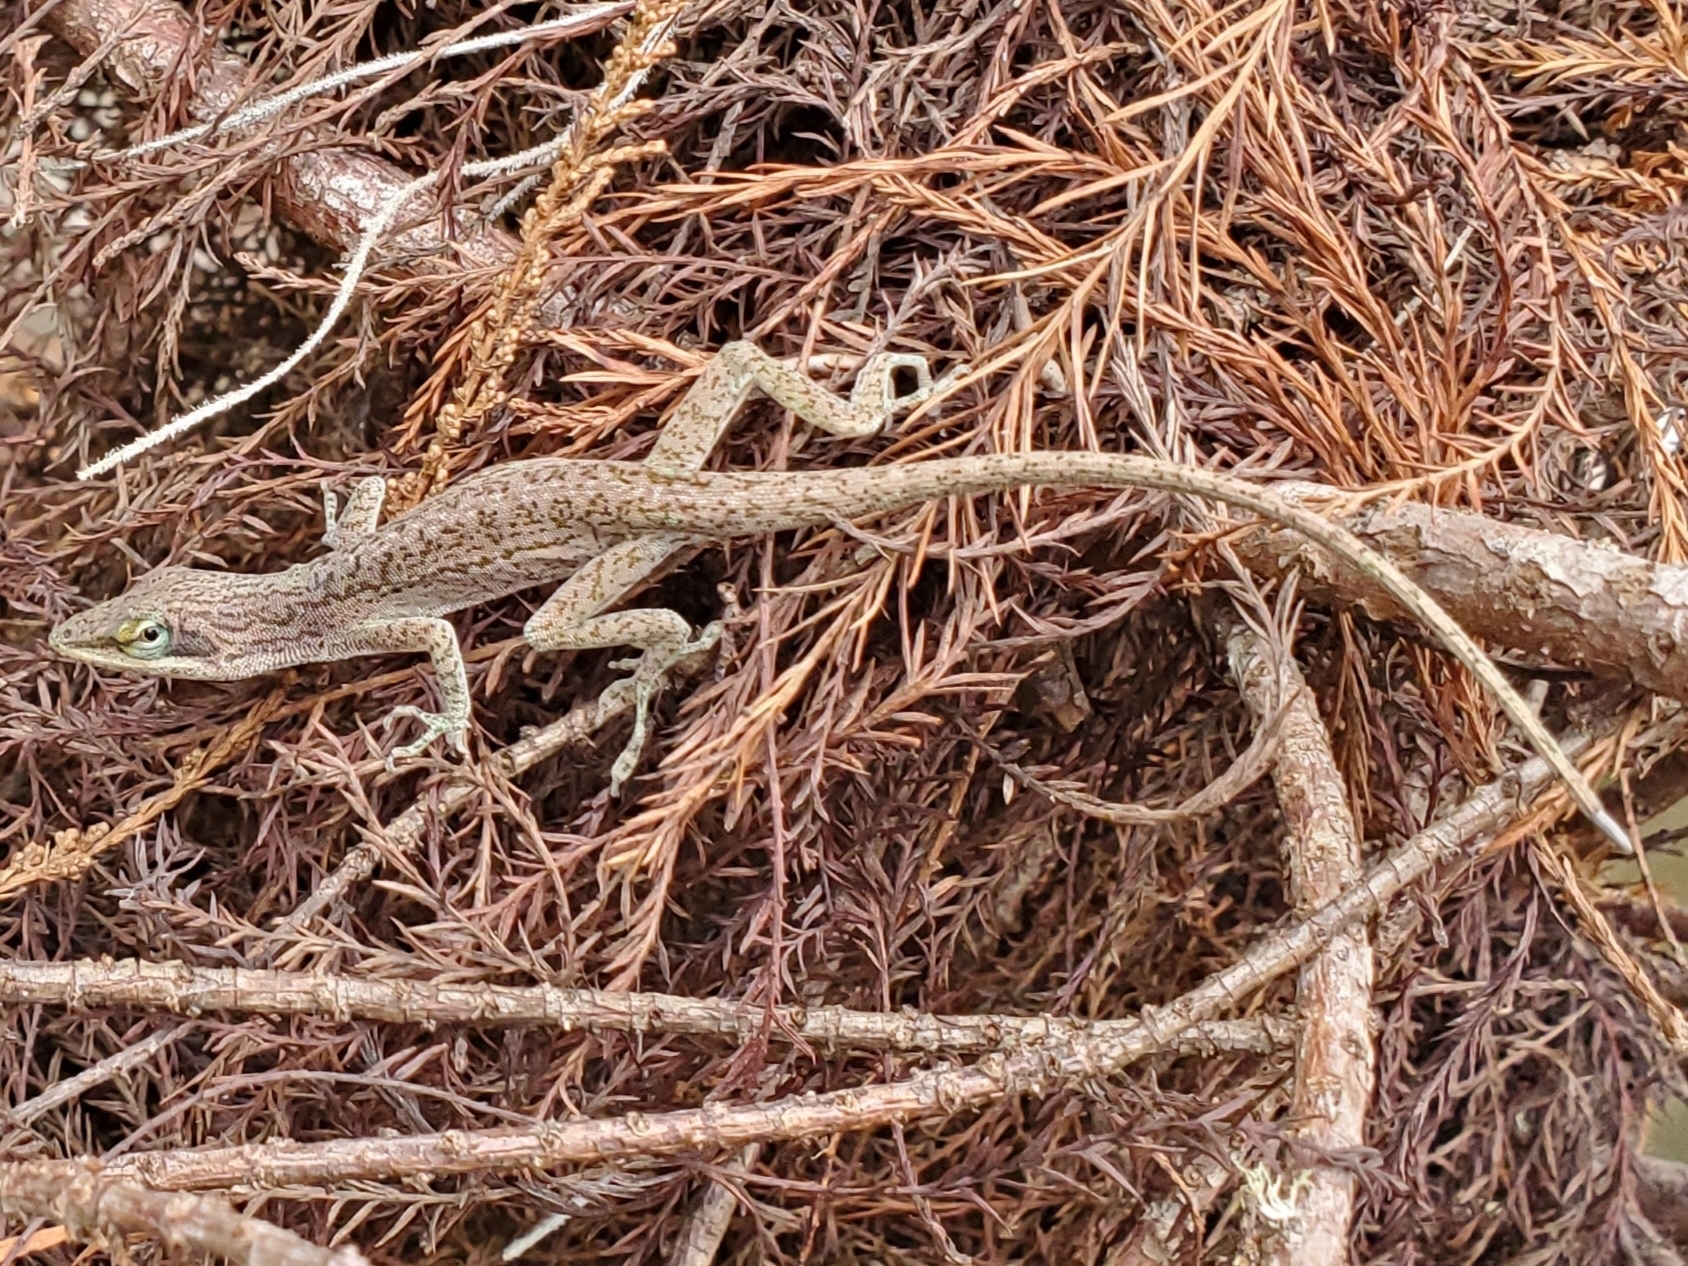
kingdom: Animalia
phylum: Chordata
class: Squamata
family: Dactyloidae
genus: Anolis
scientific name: Anolis carolinensis
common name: Green anole
